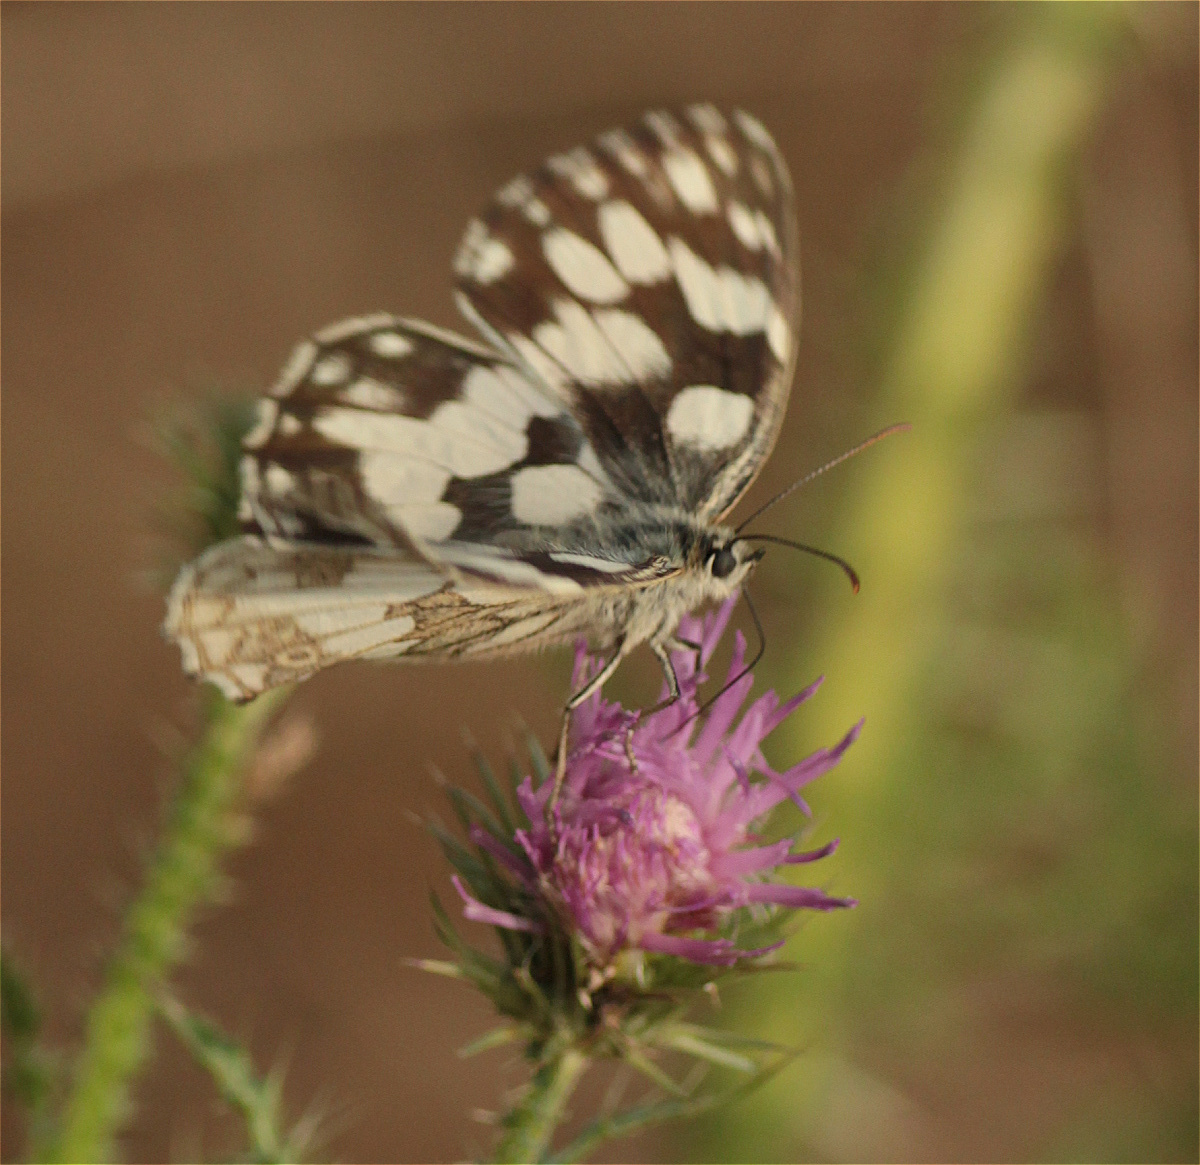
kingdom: Animalia
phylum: Arthropoda
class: Insecta
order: Lepidoptera
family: Nymphalidae
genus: Melanargia
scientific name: Melanargia galathea
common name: Marbled white
